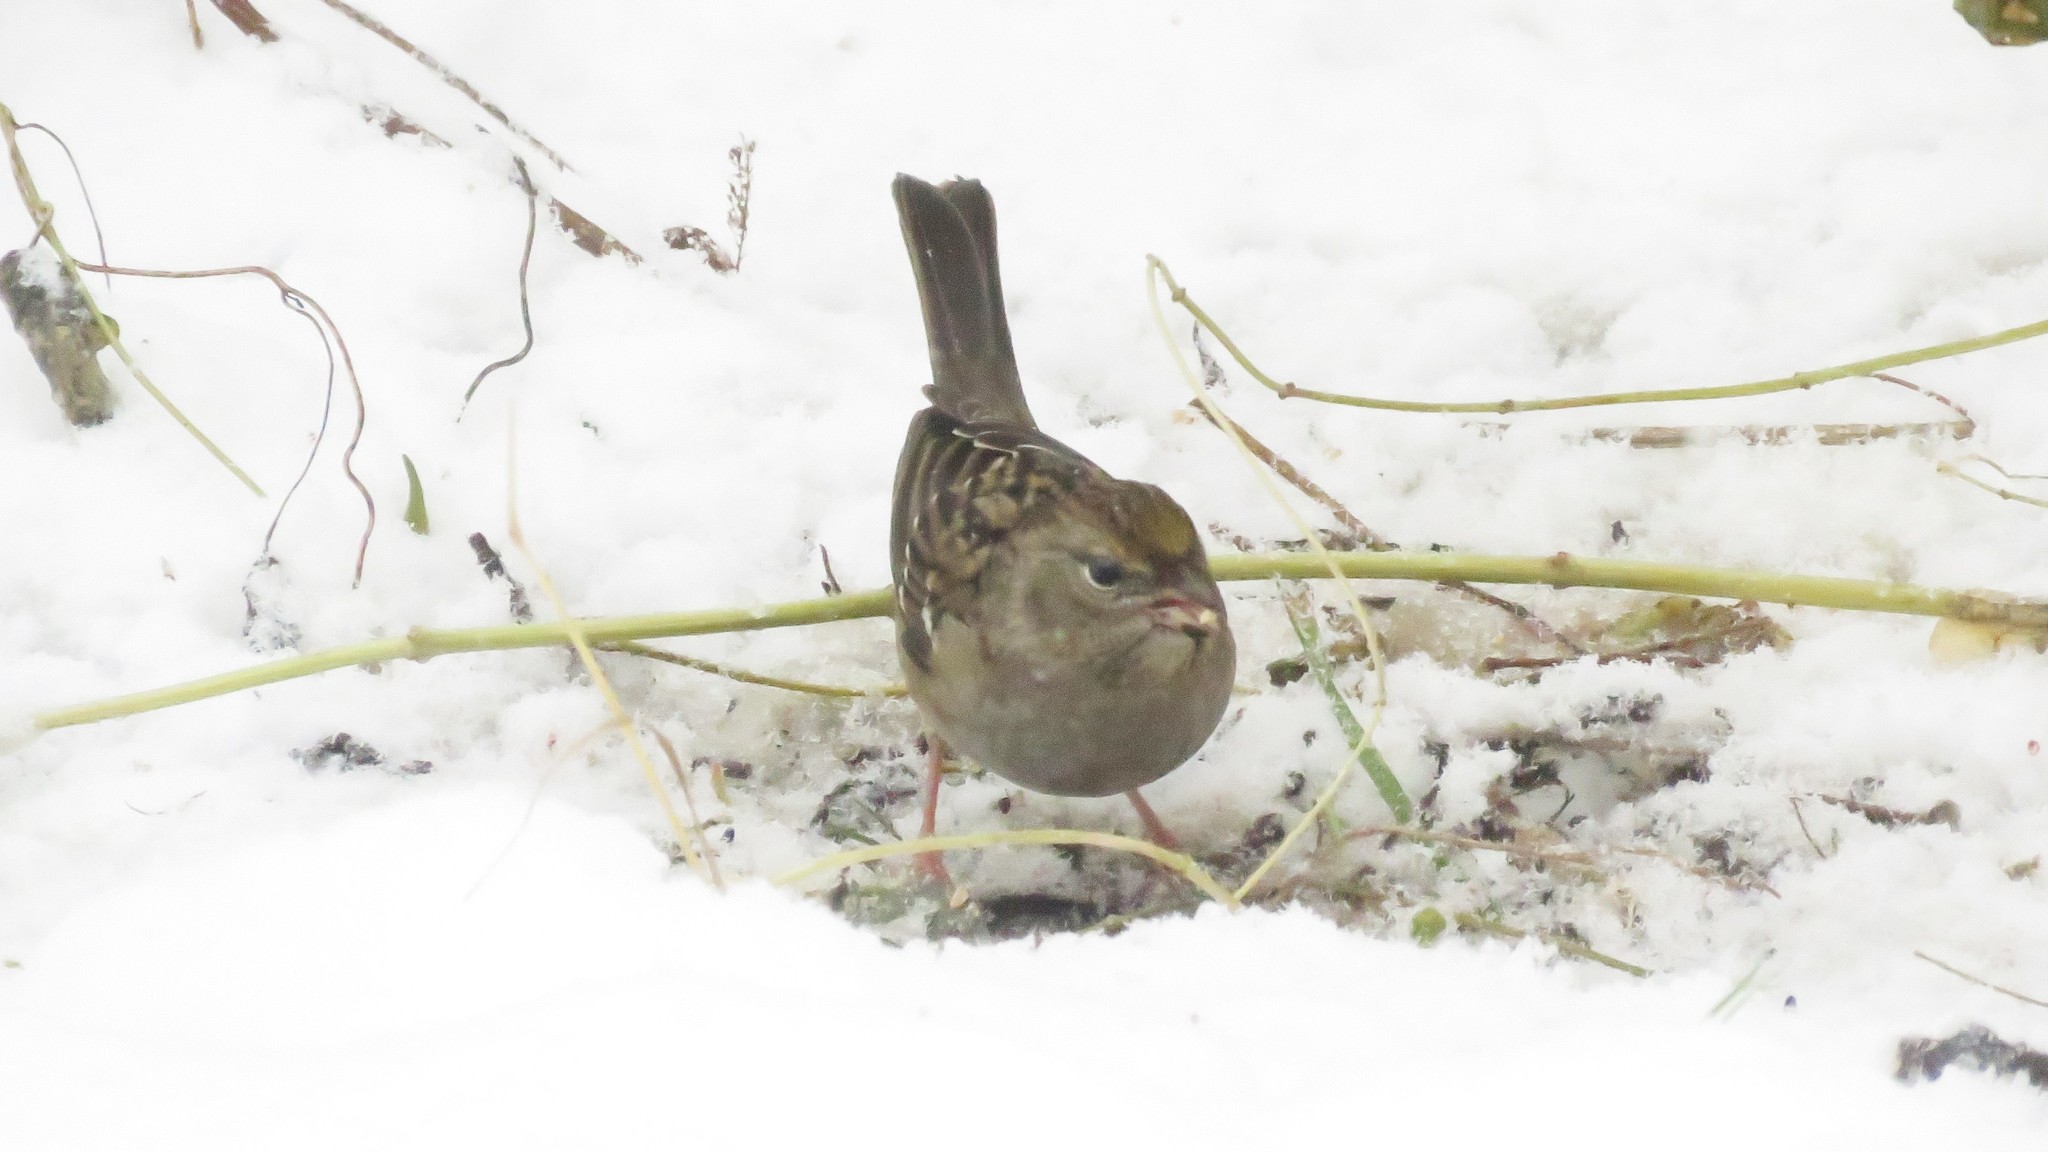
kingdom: Animalia
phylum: Chordata
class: Aves
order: Passeriformes
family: Passerellidae
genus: Zonotrichia
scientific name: Zonotrichia atricapilla
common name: Golden-crowned sparrow
